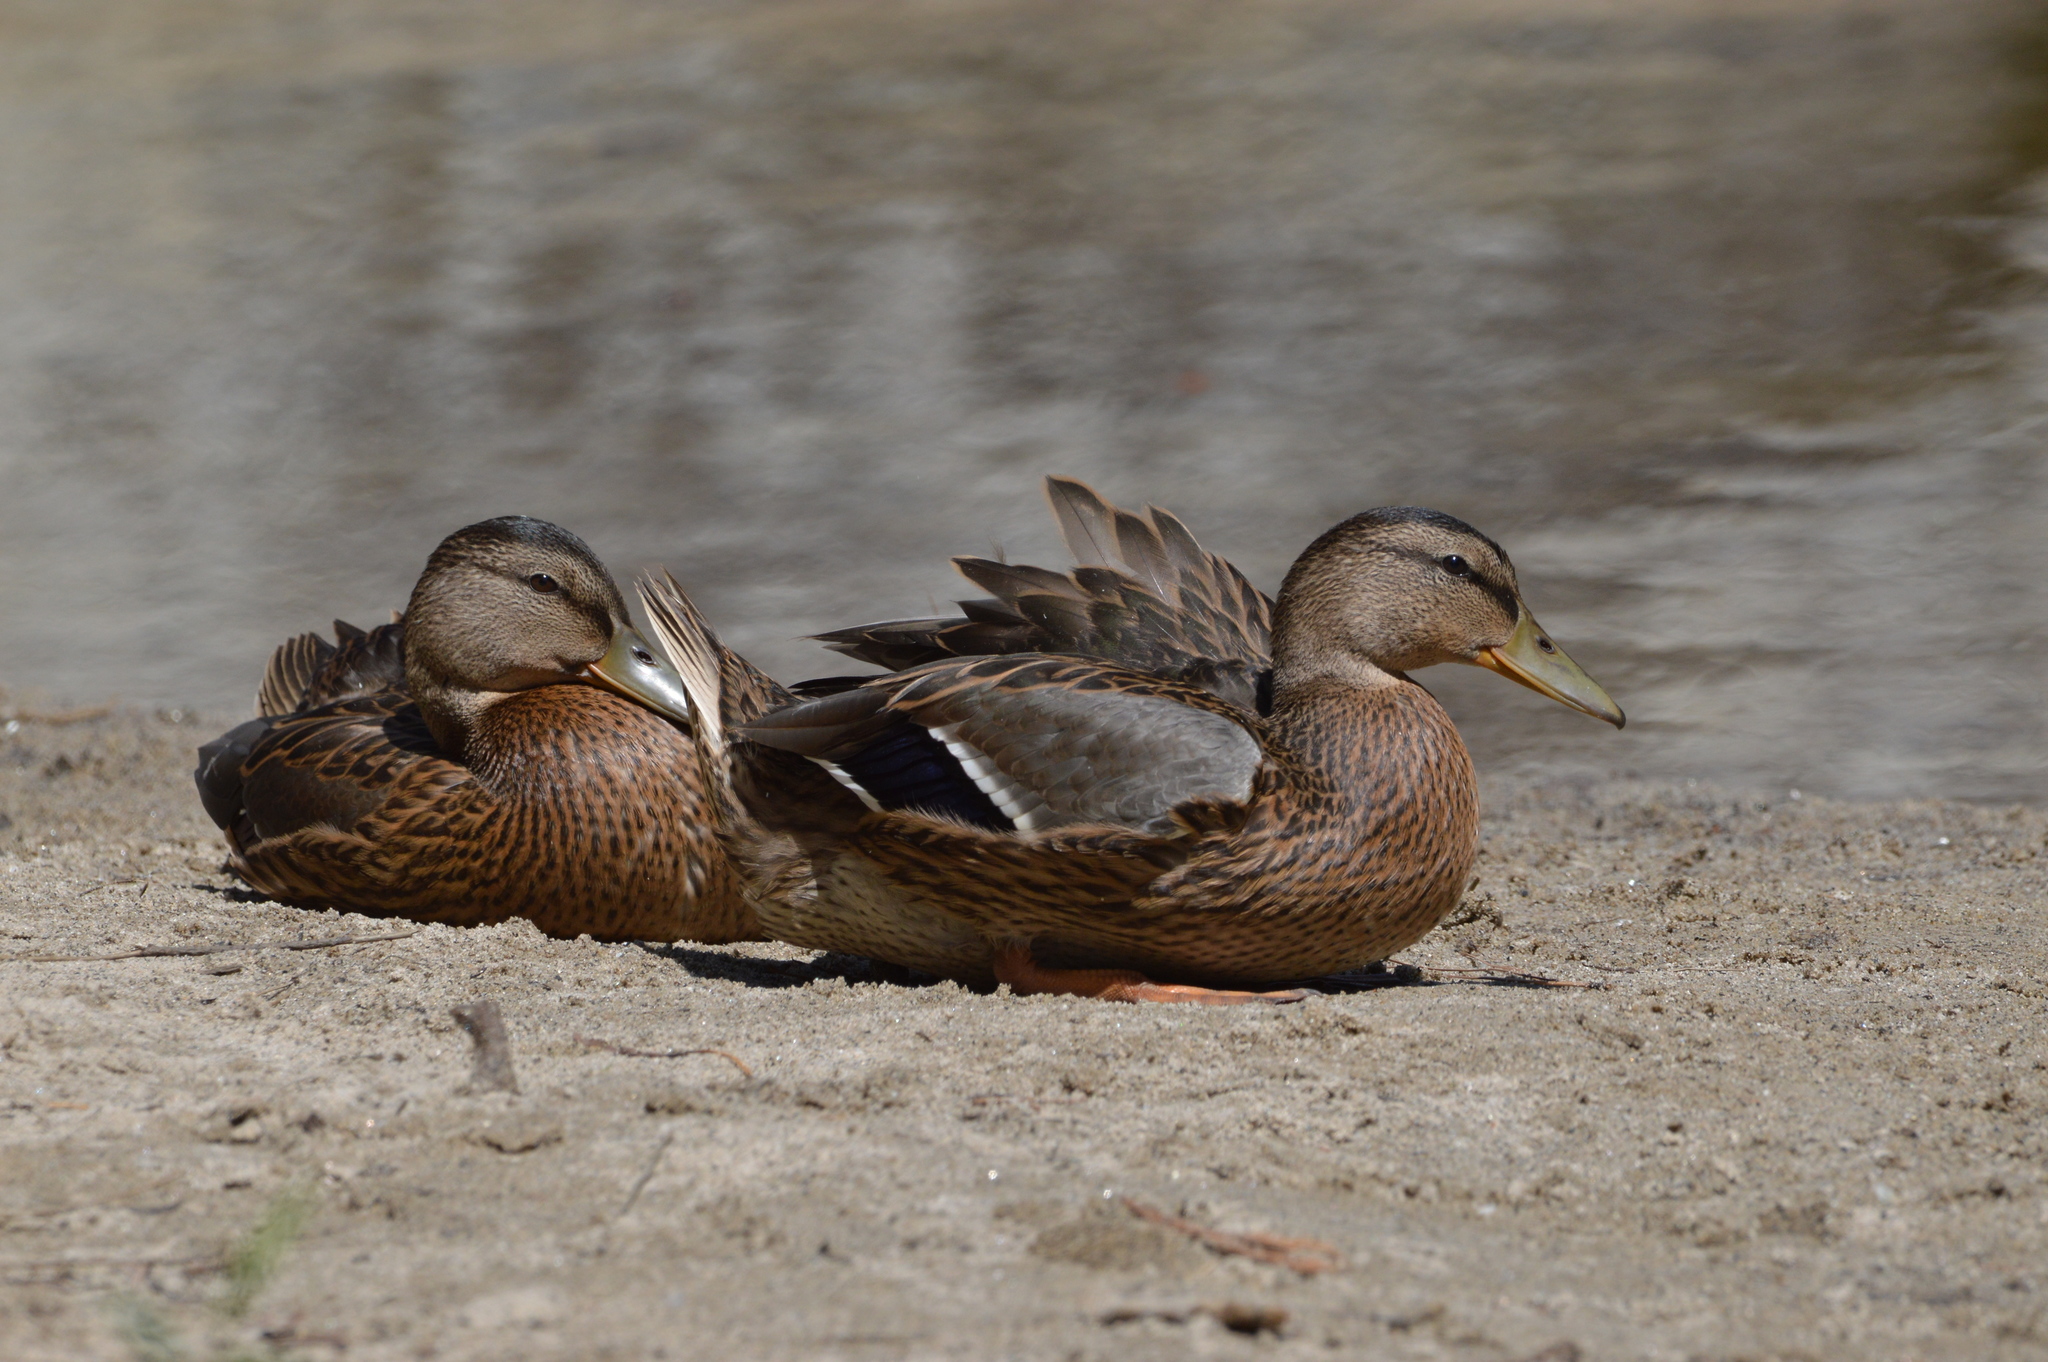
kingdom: Animalia
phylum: Chordata
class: Aves
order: Anseriformes
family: Anatidae
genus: Anas
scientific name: Anas platyrhynchos
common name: Mallard
